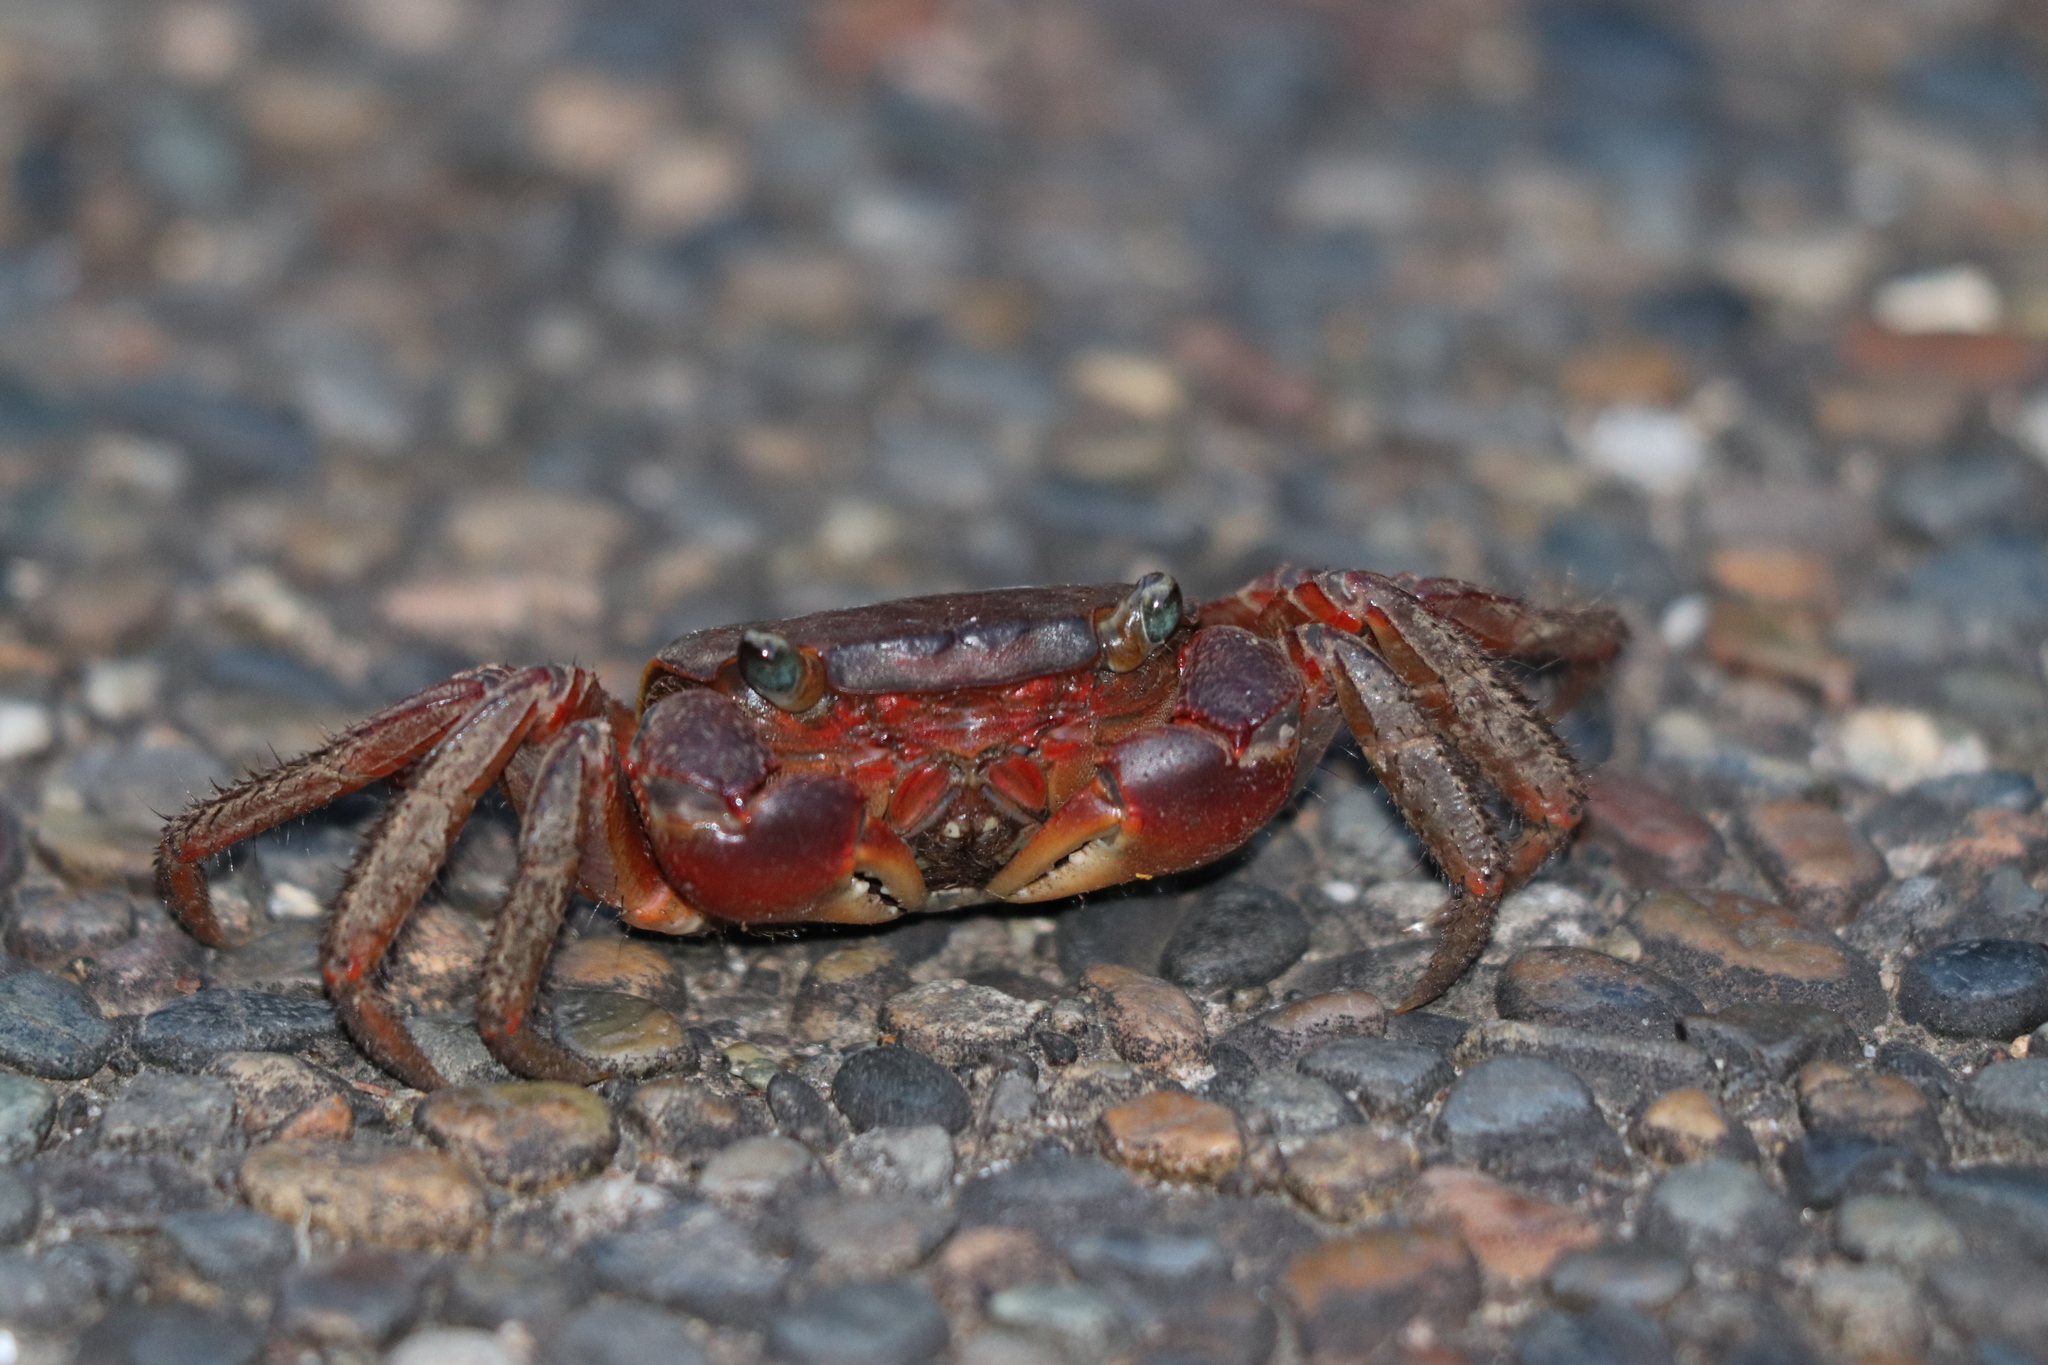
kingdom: Animalia
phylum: Arthropoda
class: Malacostraca
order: Decapoda
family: Sesarmidae
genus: Chiromantes
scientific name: Chiromantes haematocheir
